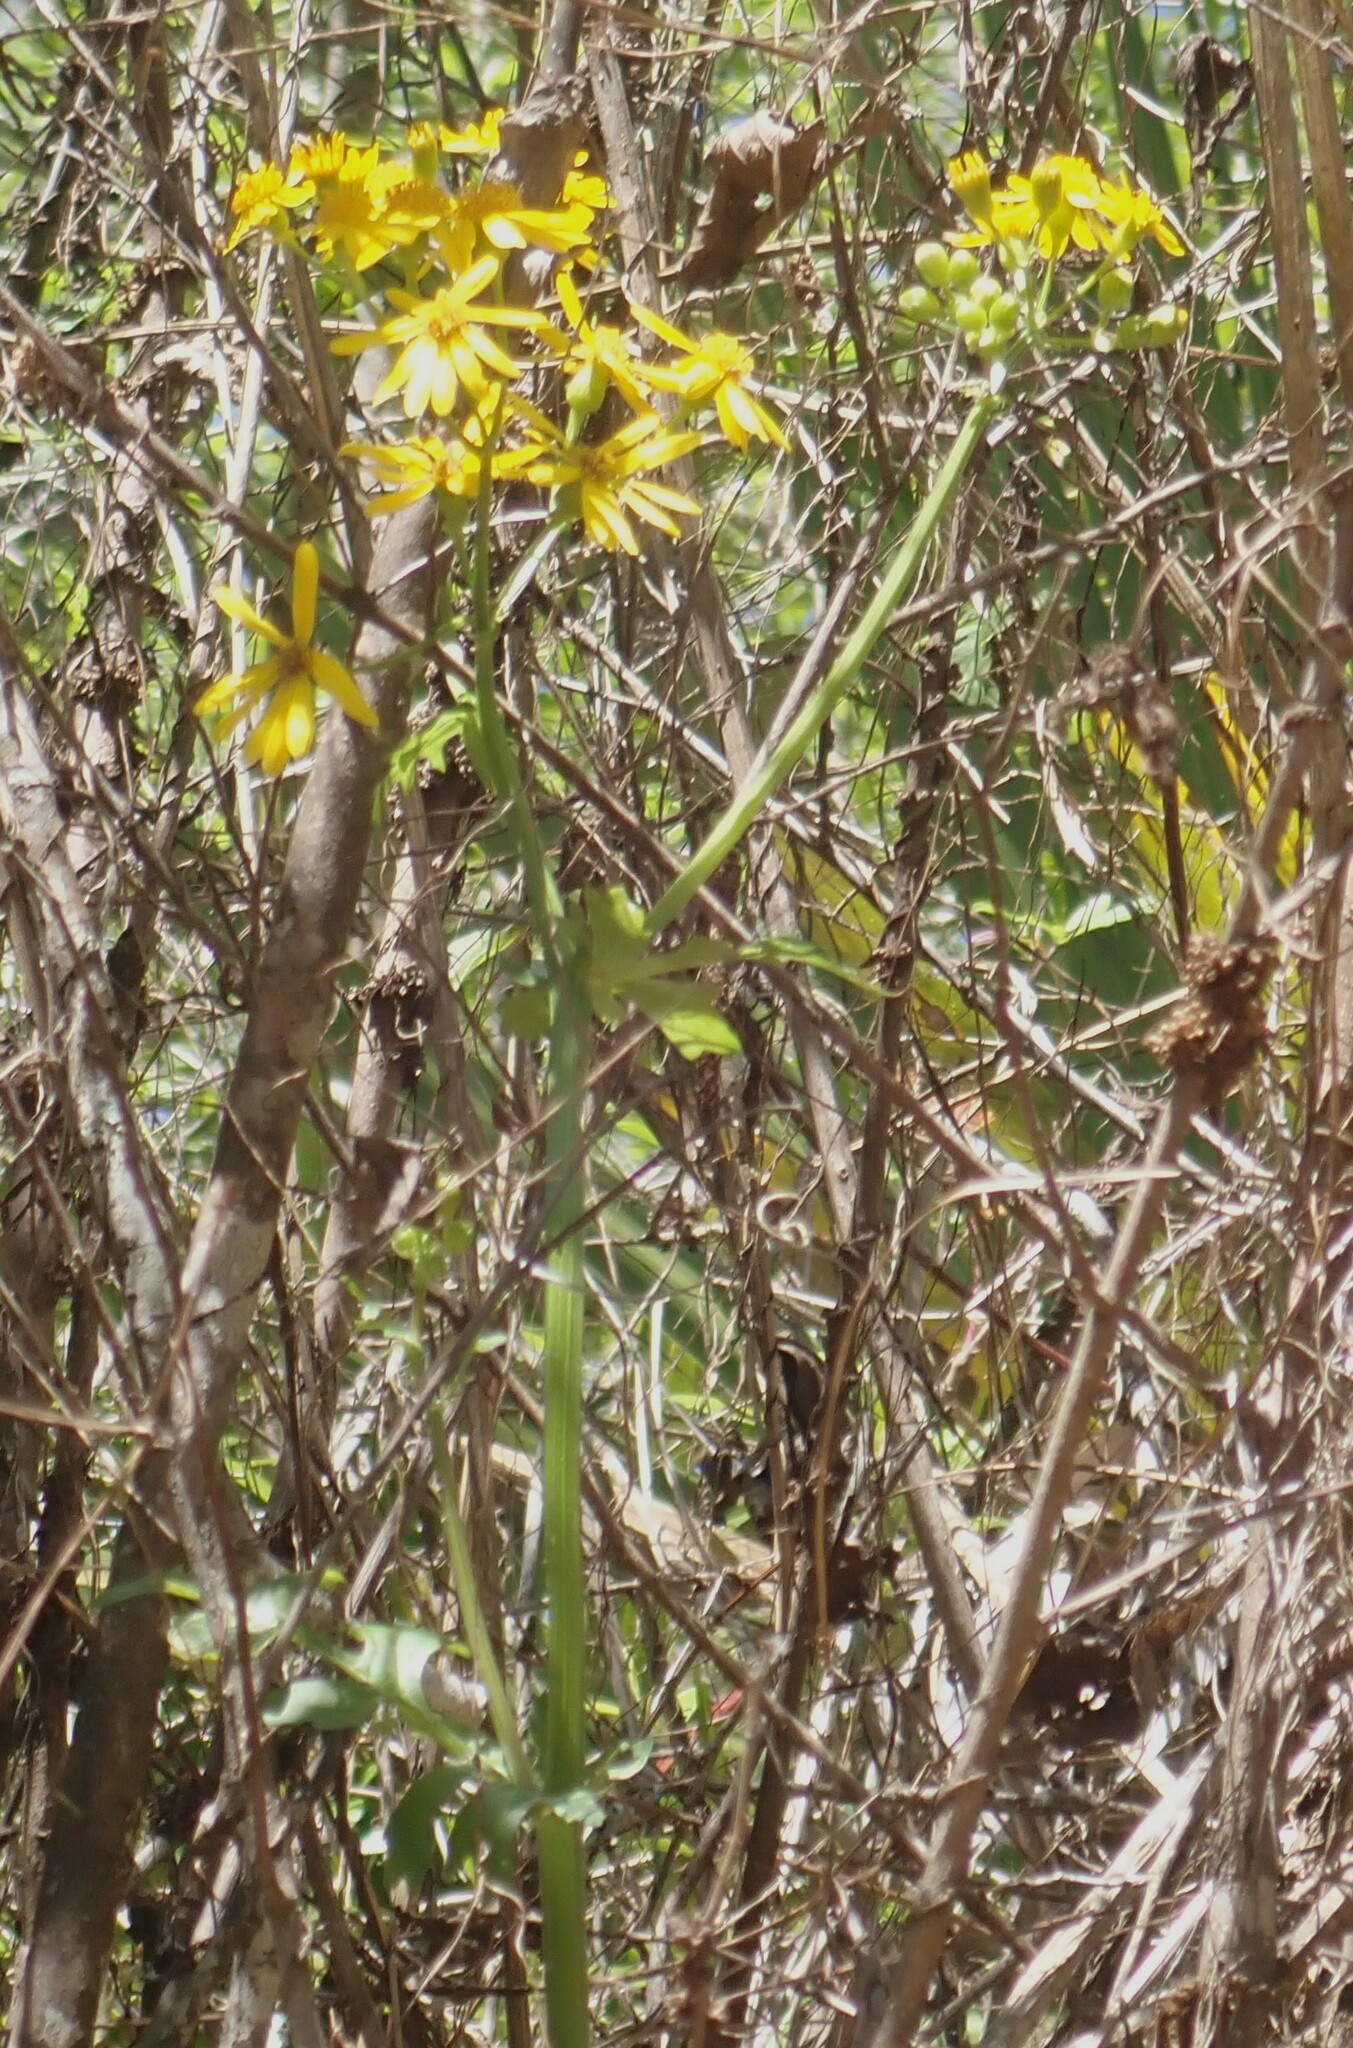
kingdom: Plantae
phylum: Tracheophyta
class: Magnoliopsida
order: Asterales
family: Asteraceae
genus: Packera
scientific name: Packera glabella
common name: Butterweed
